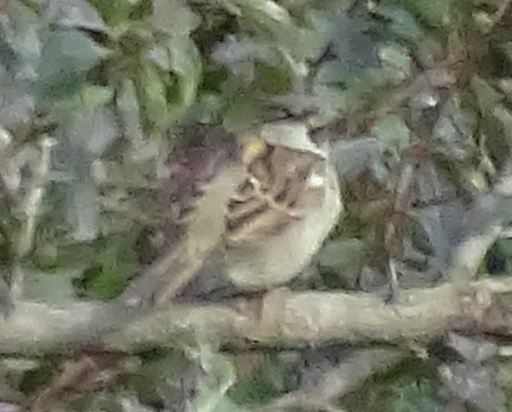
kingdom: Animalia
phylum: Chordata
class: Aves
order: Passeriformes
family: Passeridae
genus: Passer
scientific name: Passer domesticus
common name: House sparrow
